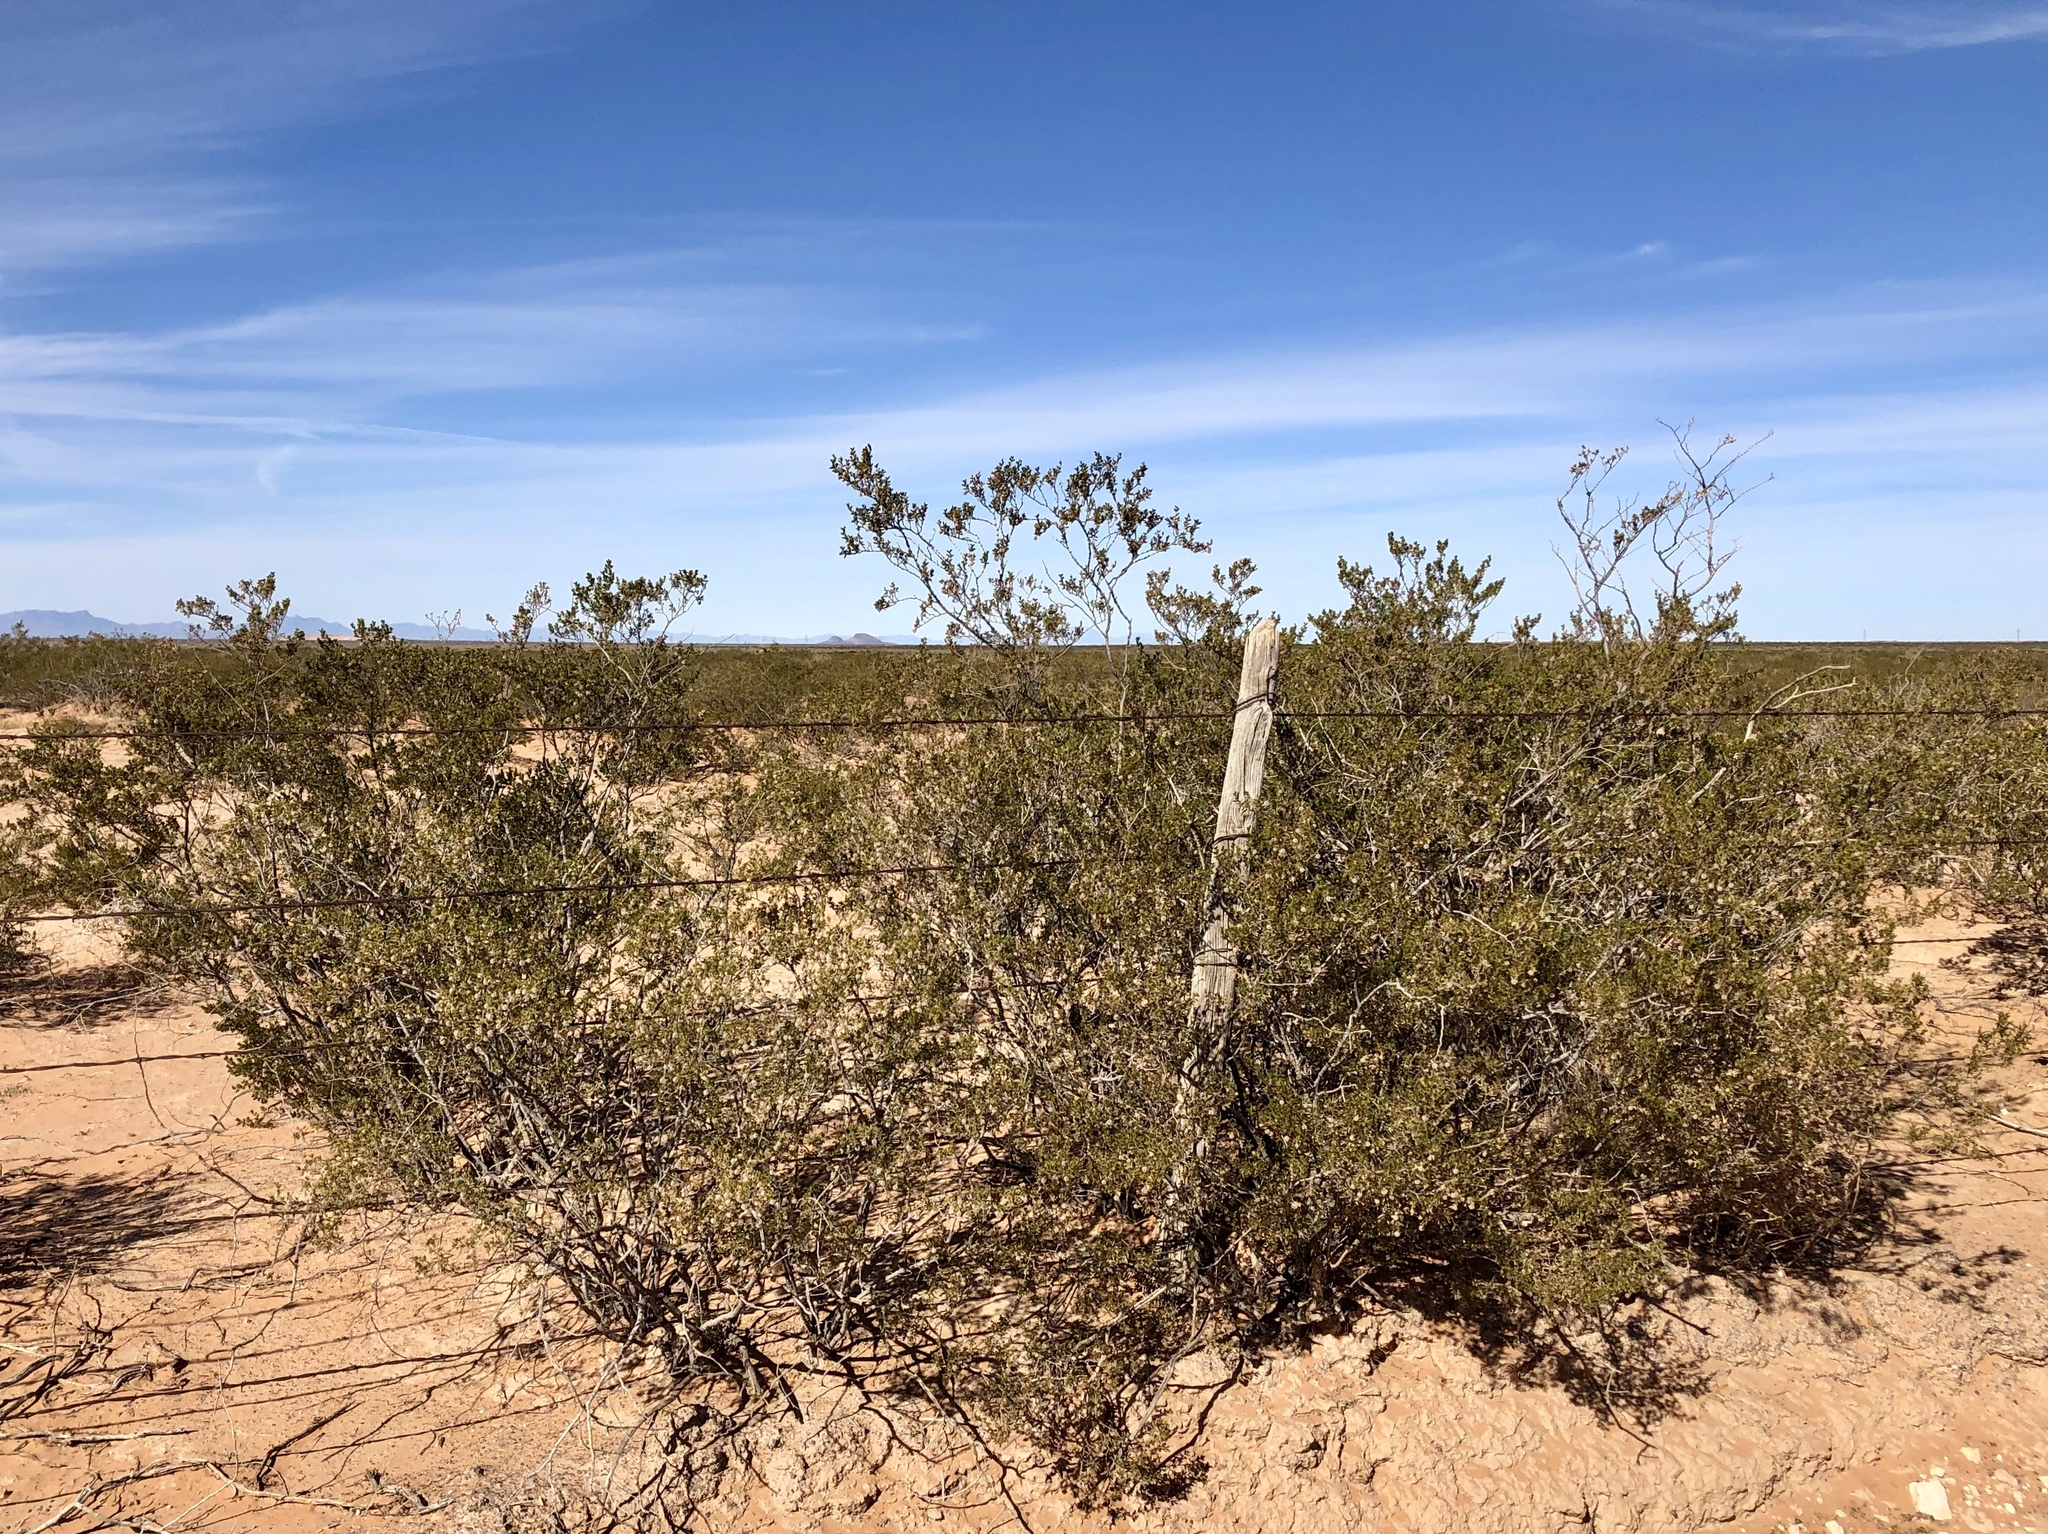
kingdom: Plantae
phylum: Tracheophyta
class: Magnoliopsida
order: Zygophyllales
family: Zygophyllaceae
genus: Larrea
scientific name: Larrea tridentata
